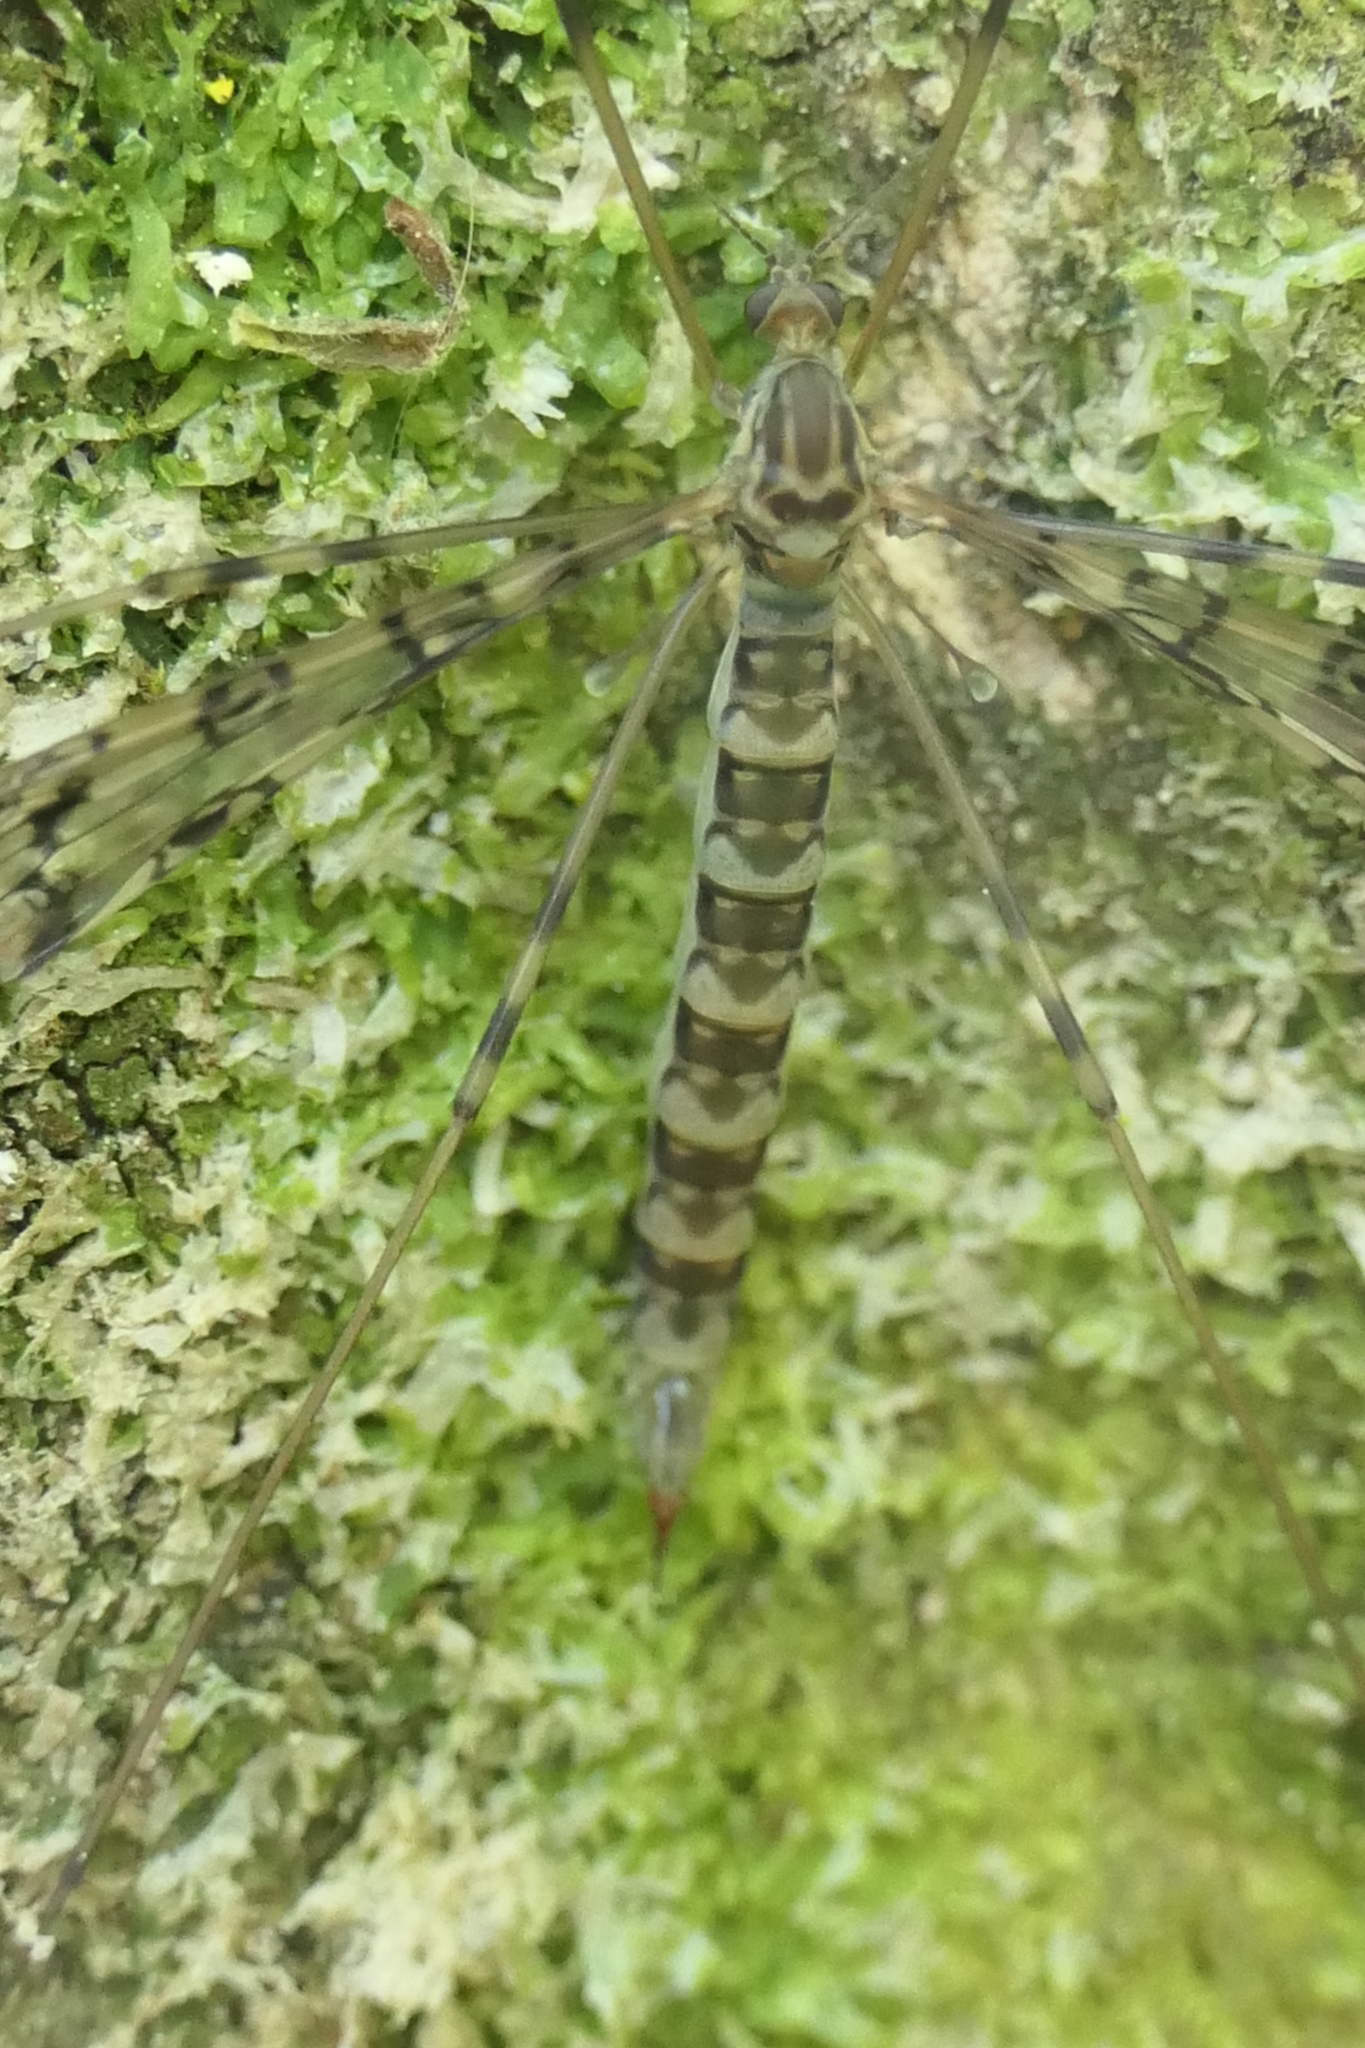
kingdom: Animalia
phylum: Arthropoda
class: Insecta
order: Diptera
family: Limoniidae
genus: Austrolimnophila
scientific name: Austrolimnophila argus
